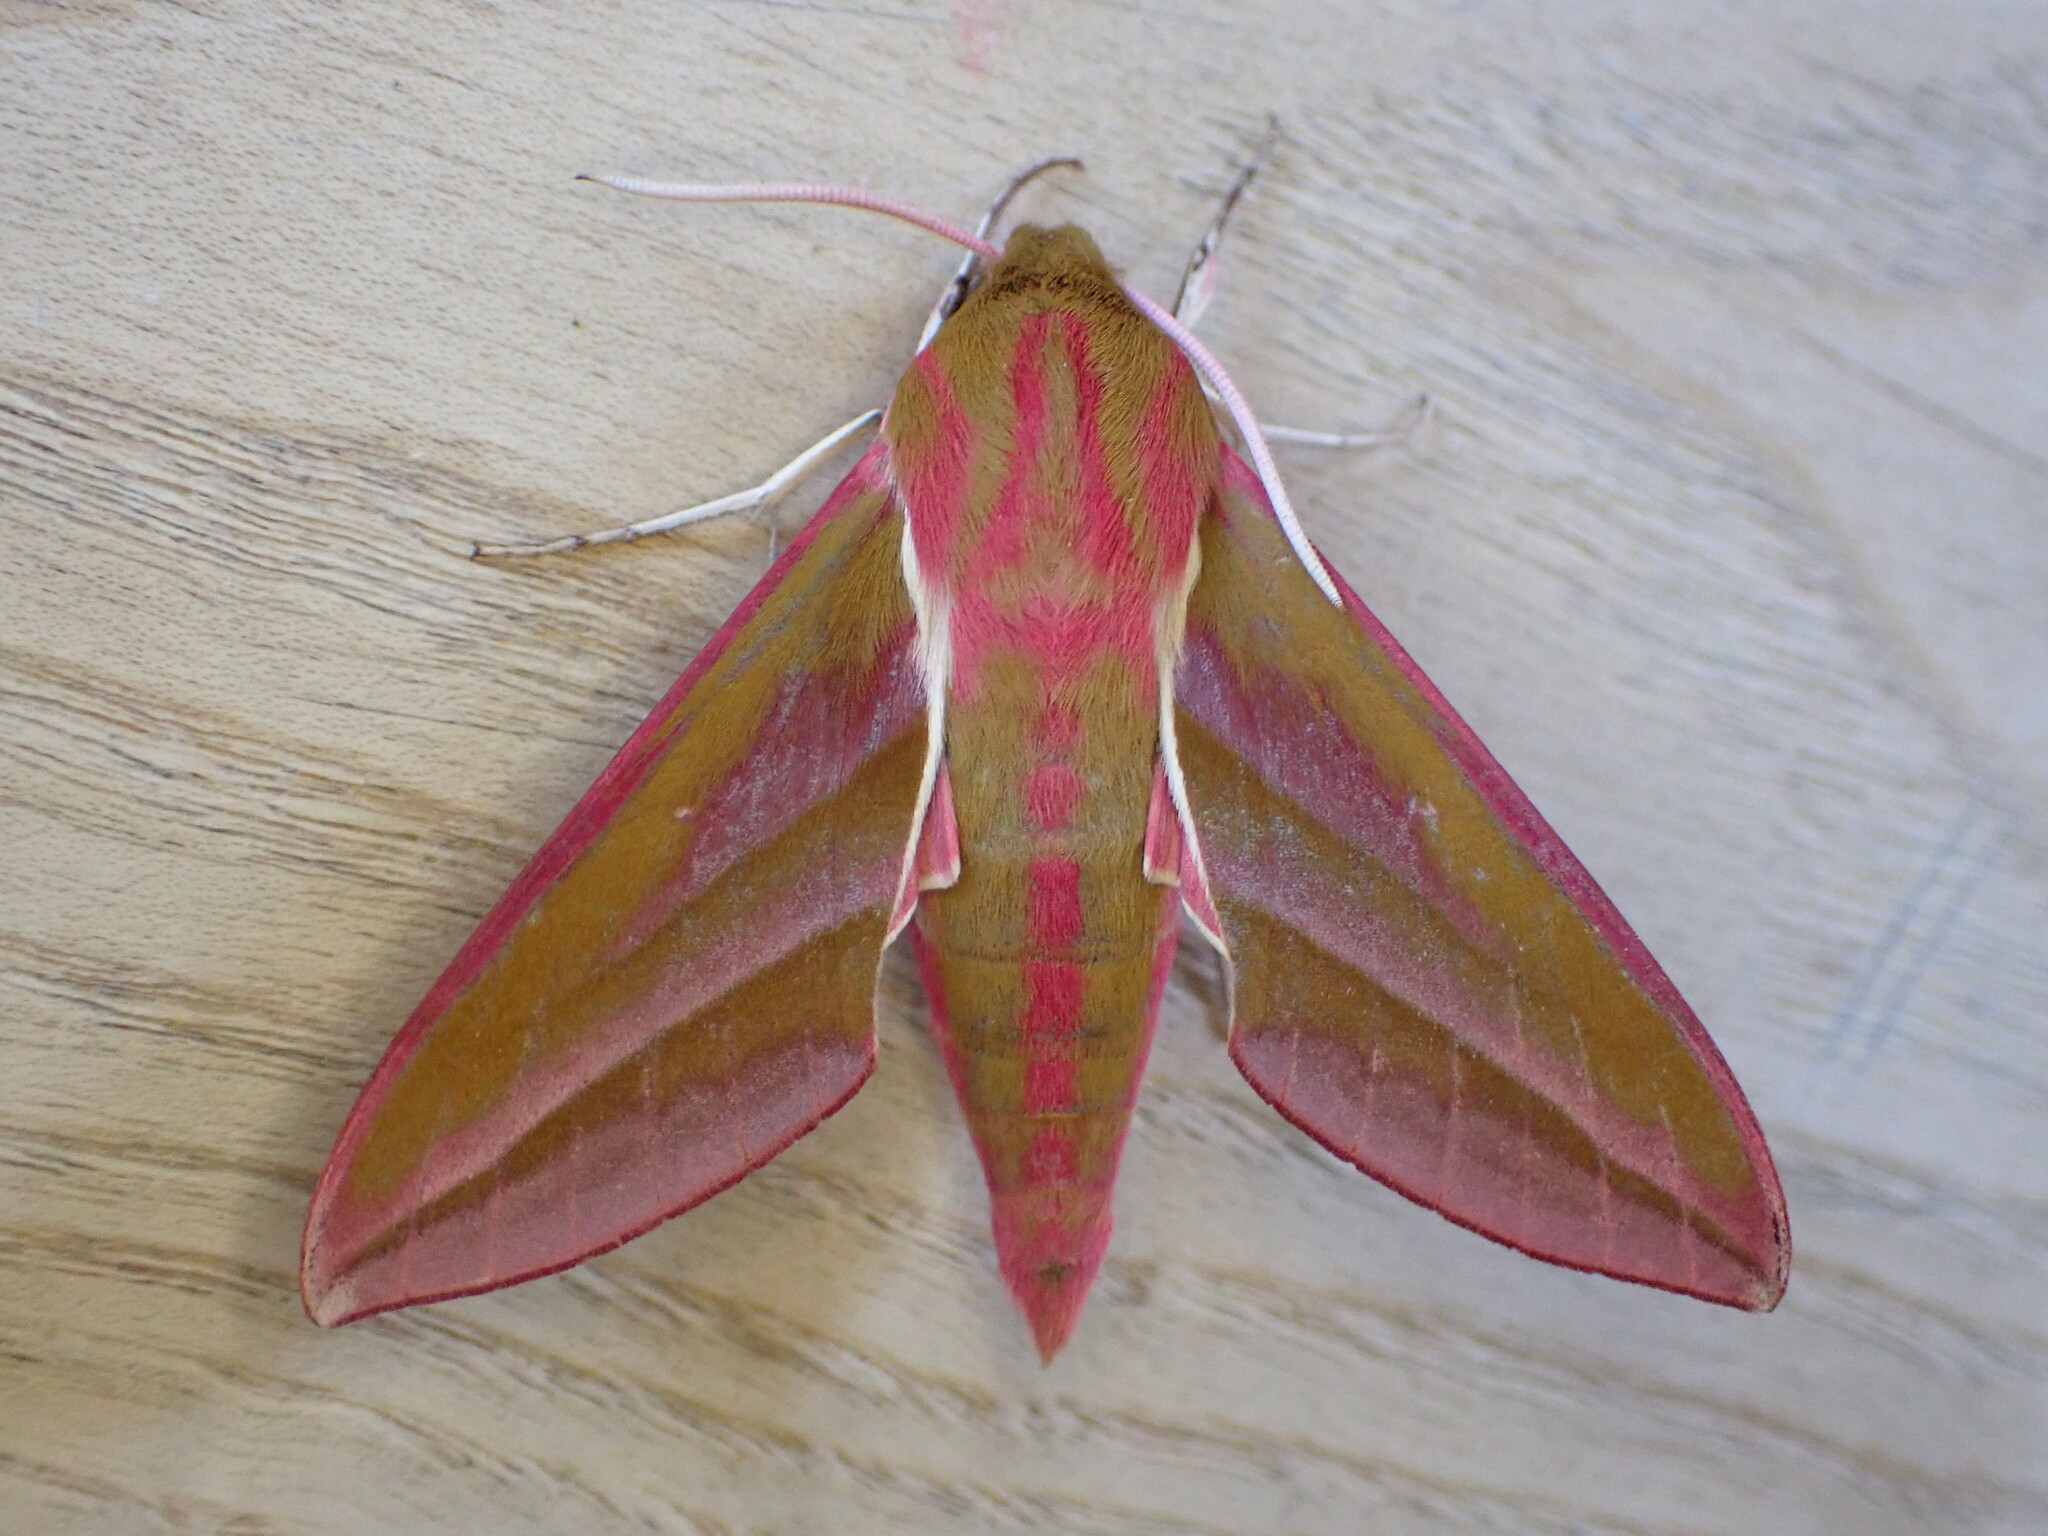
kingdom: Animalia
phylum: Arthropoda
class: Insecta
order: Lepidoptera
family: Sphingidae
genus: Deilephila
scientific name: Deilephila elpenor
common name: Elephant hawk-moth
